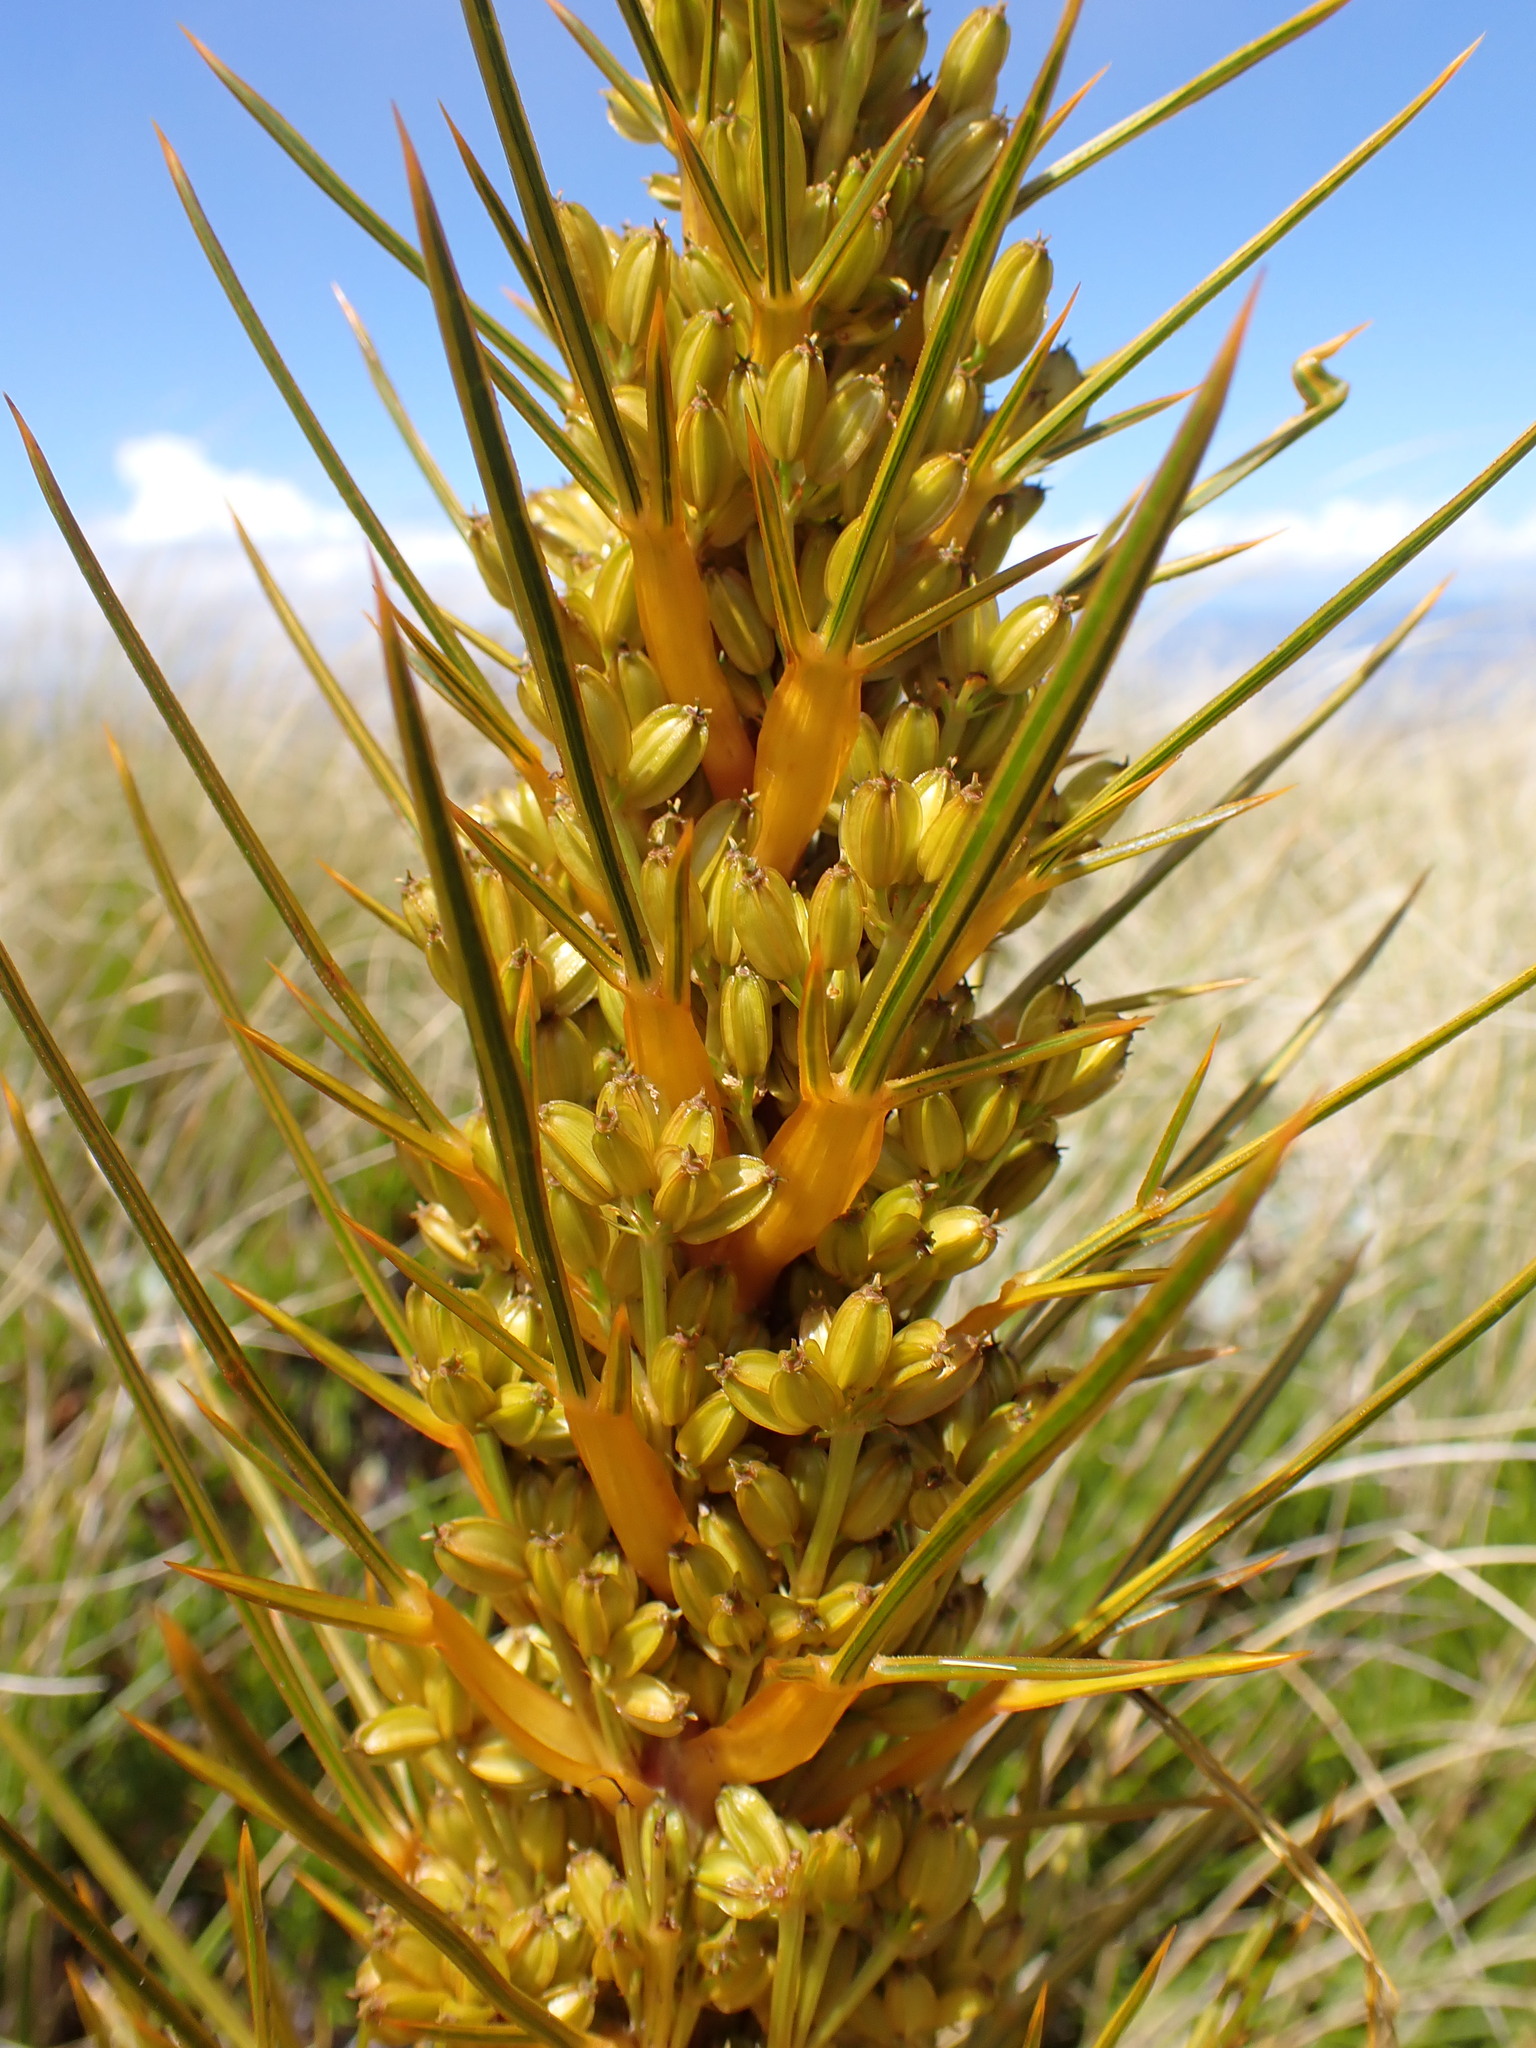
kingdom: Plantae
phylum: Tracheophyta
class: Magnoliopsida
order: Apiales
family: Apiaceae
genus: Aciphylla
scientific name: Aciphylla colensoi
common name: Colenso's spaniard
